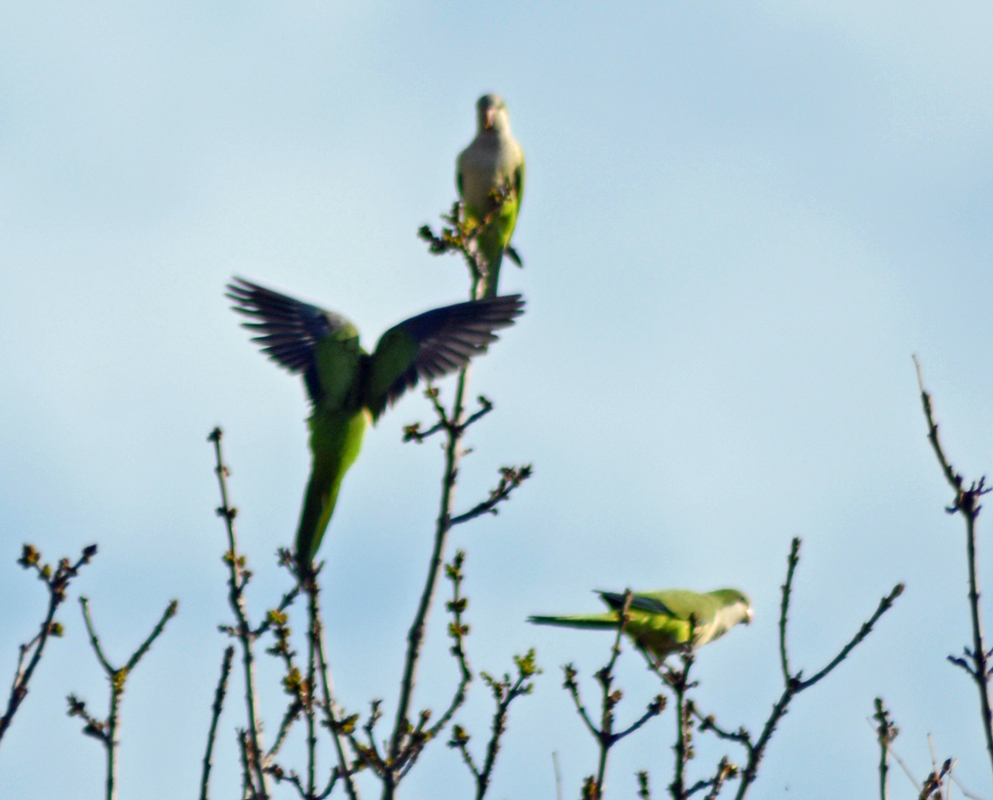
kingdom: Animalia
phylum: Chordata
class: Aves
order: Psittaciformes
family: Psittacidae
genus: Myiopsitta
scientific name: Myiopsitta monachus
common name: Monk parakeet
